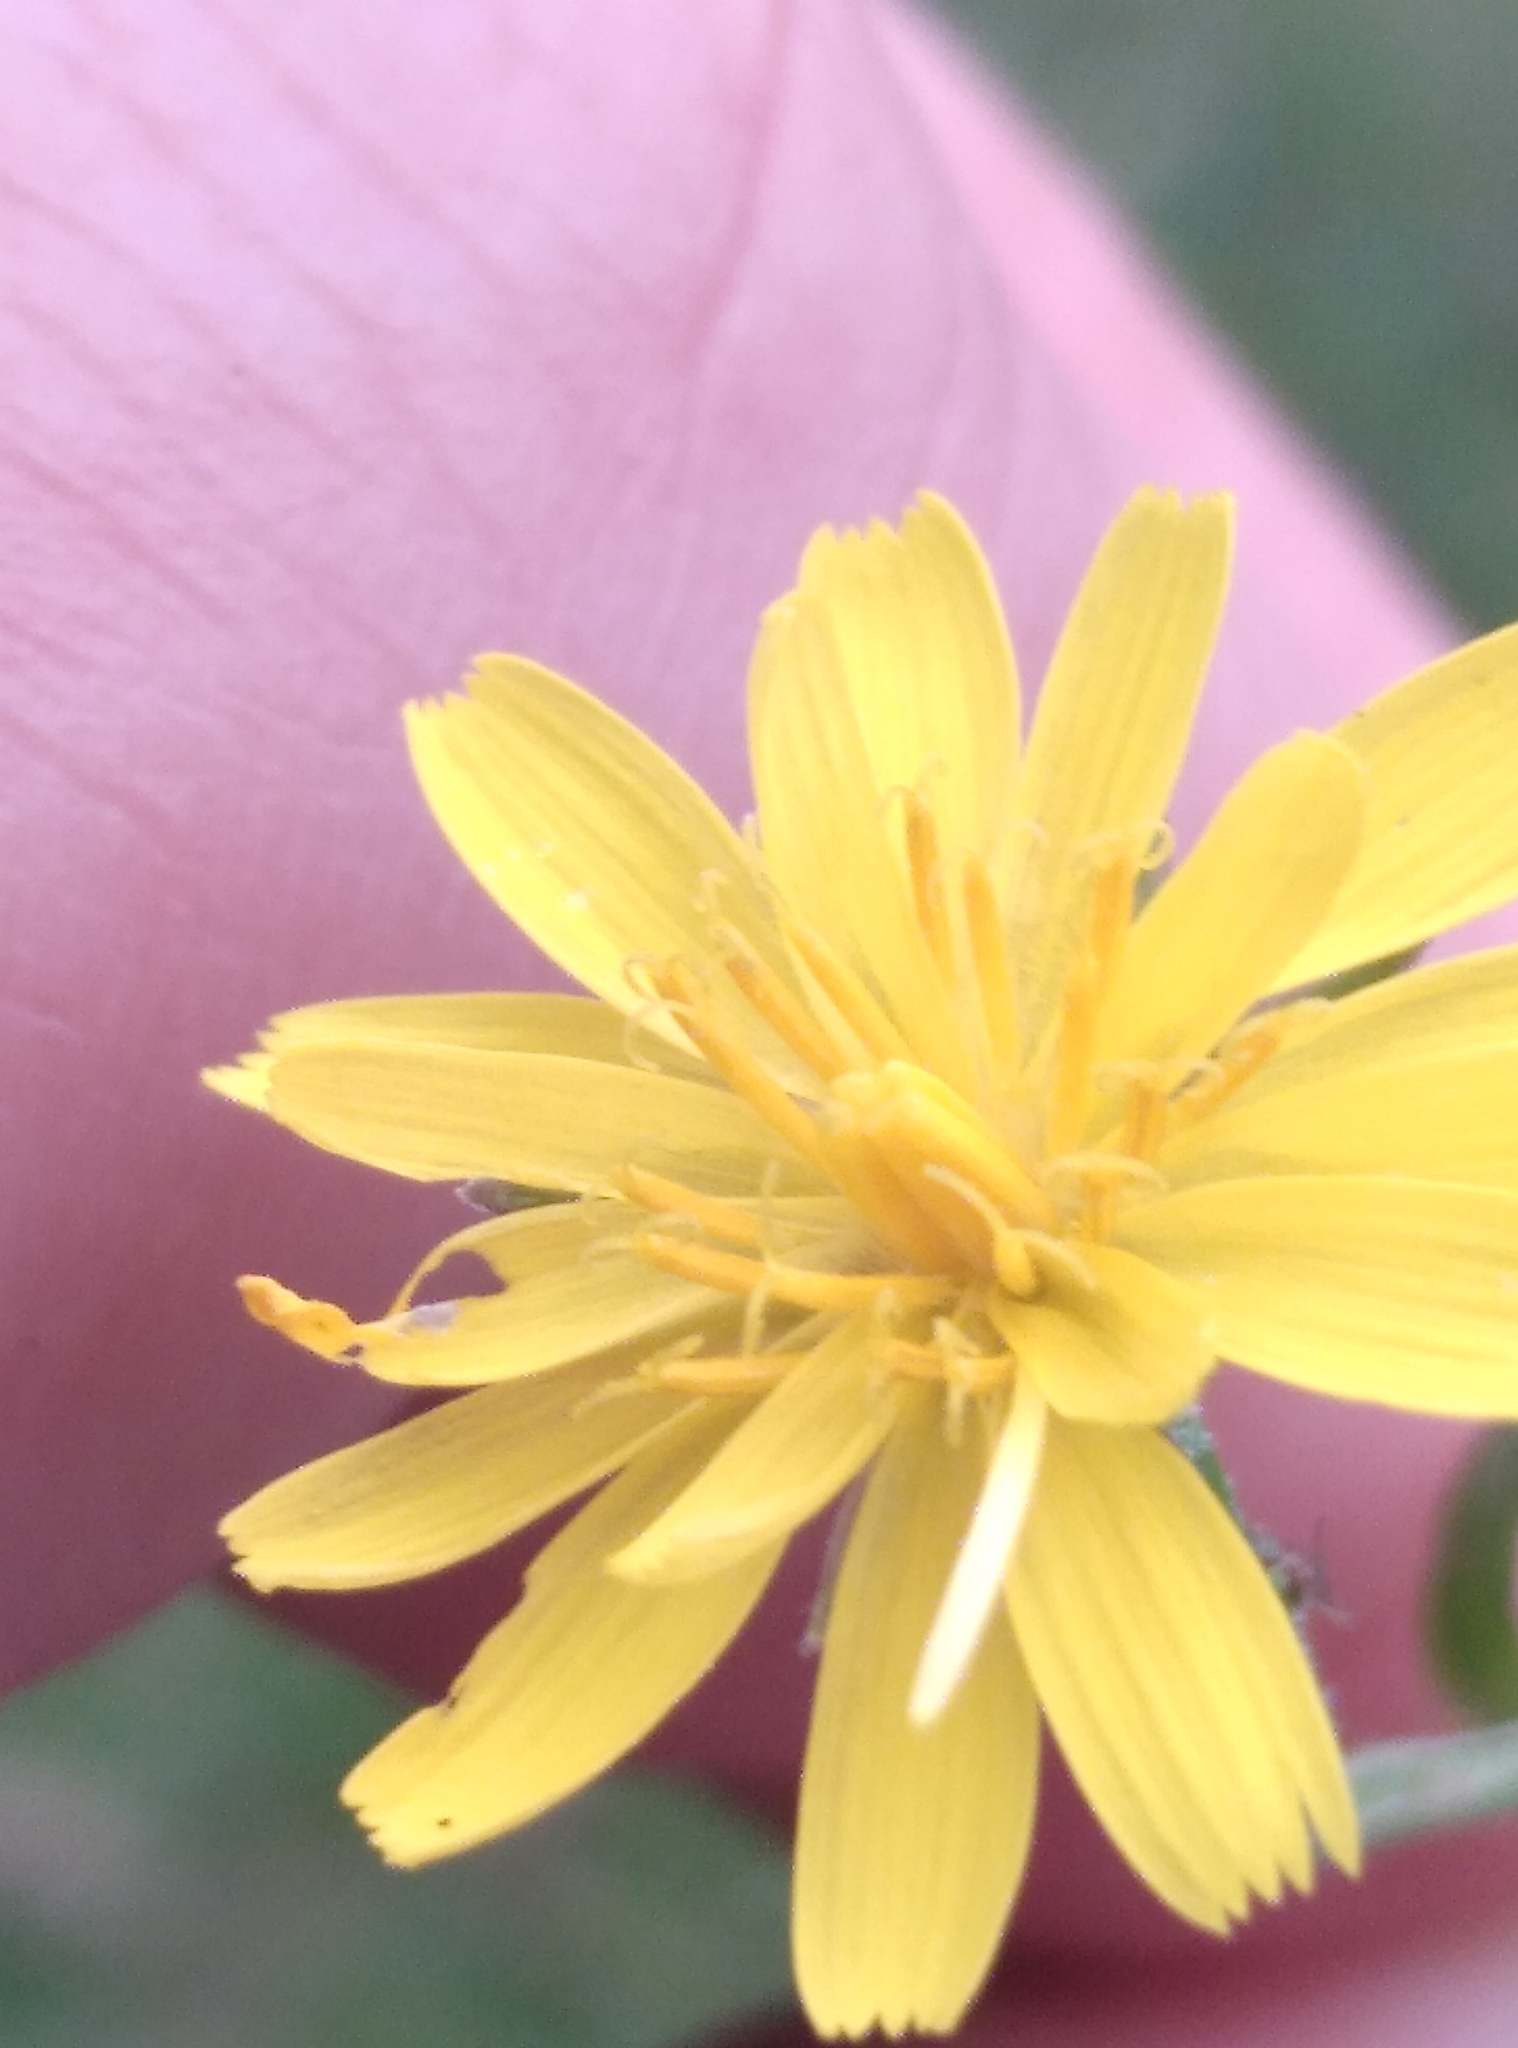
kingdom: Plantae
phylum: Tracheophyta
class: Magnoliopsida
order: Asterales
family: Asteraceae
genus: Crepis
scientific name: Crepis capillaris
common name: Smooth hawksbeard
